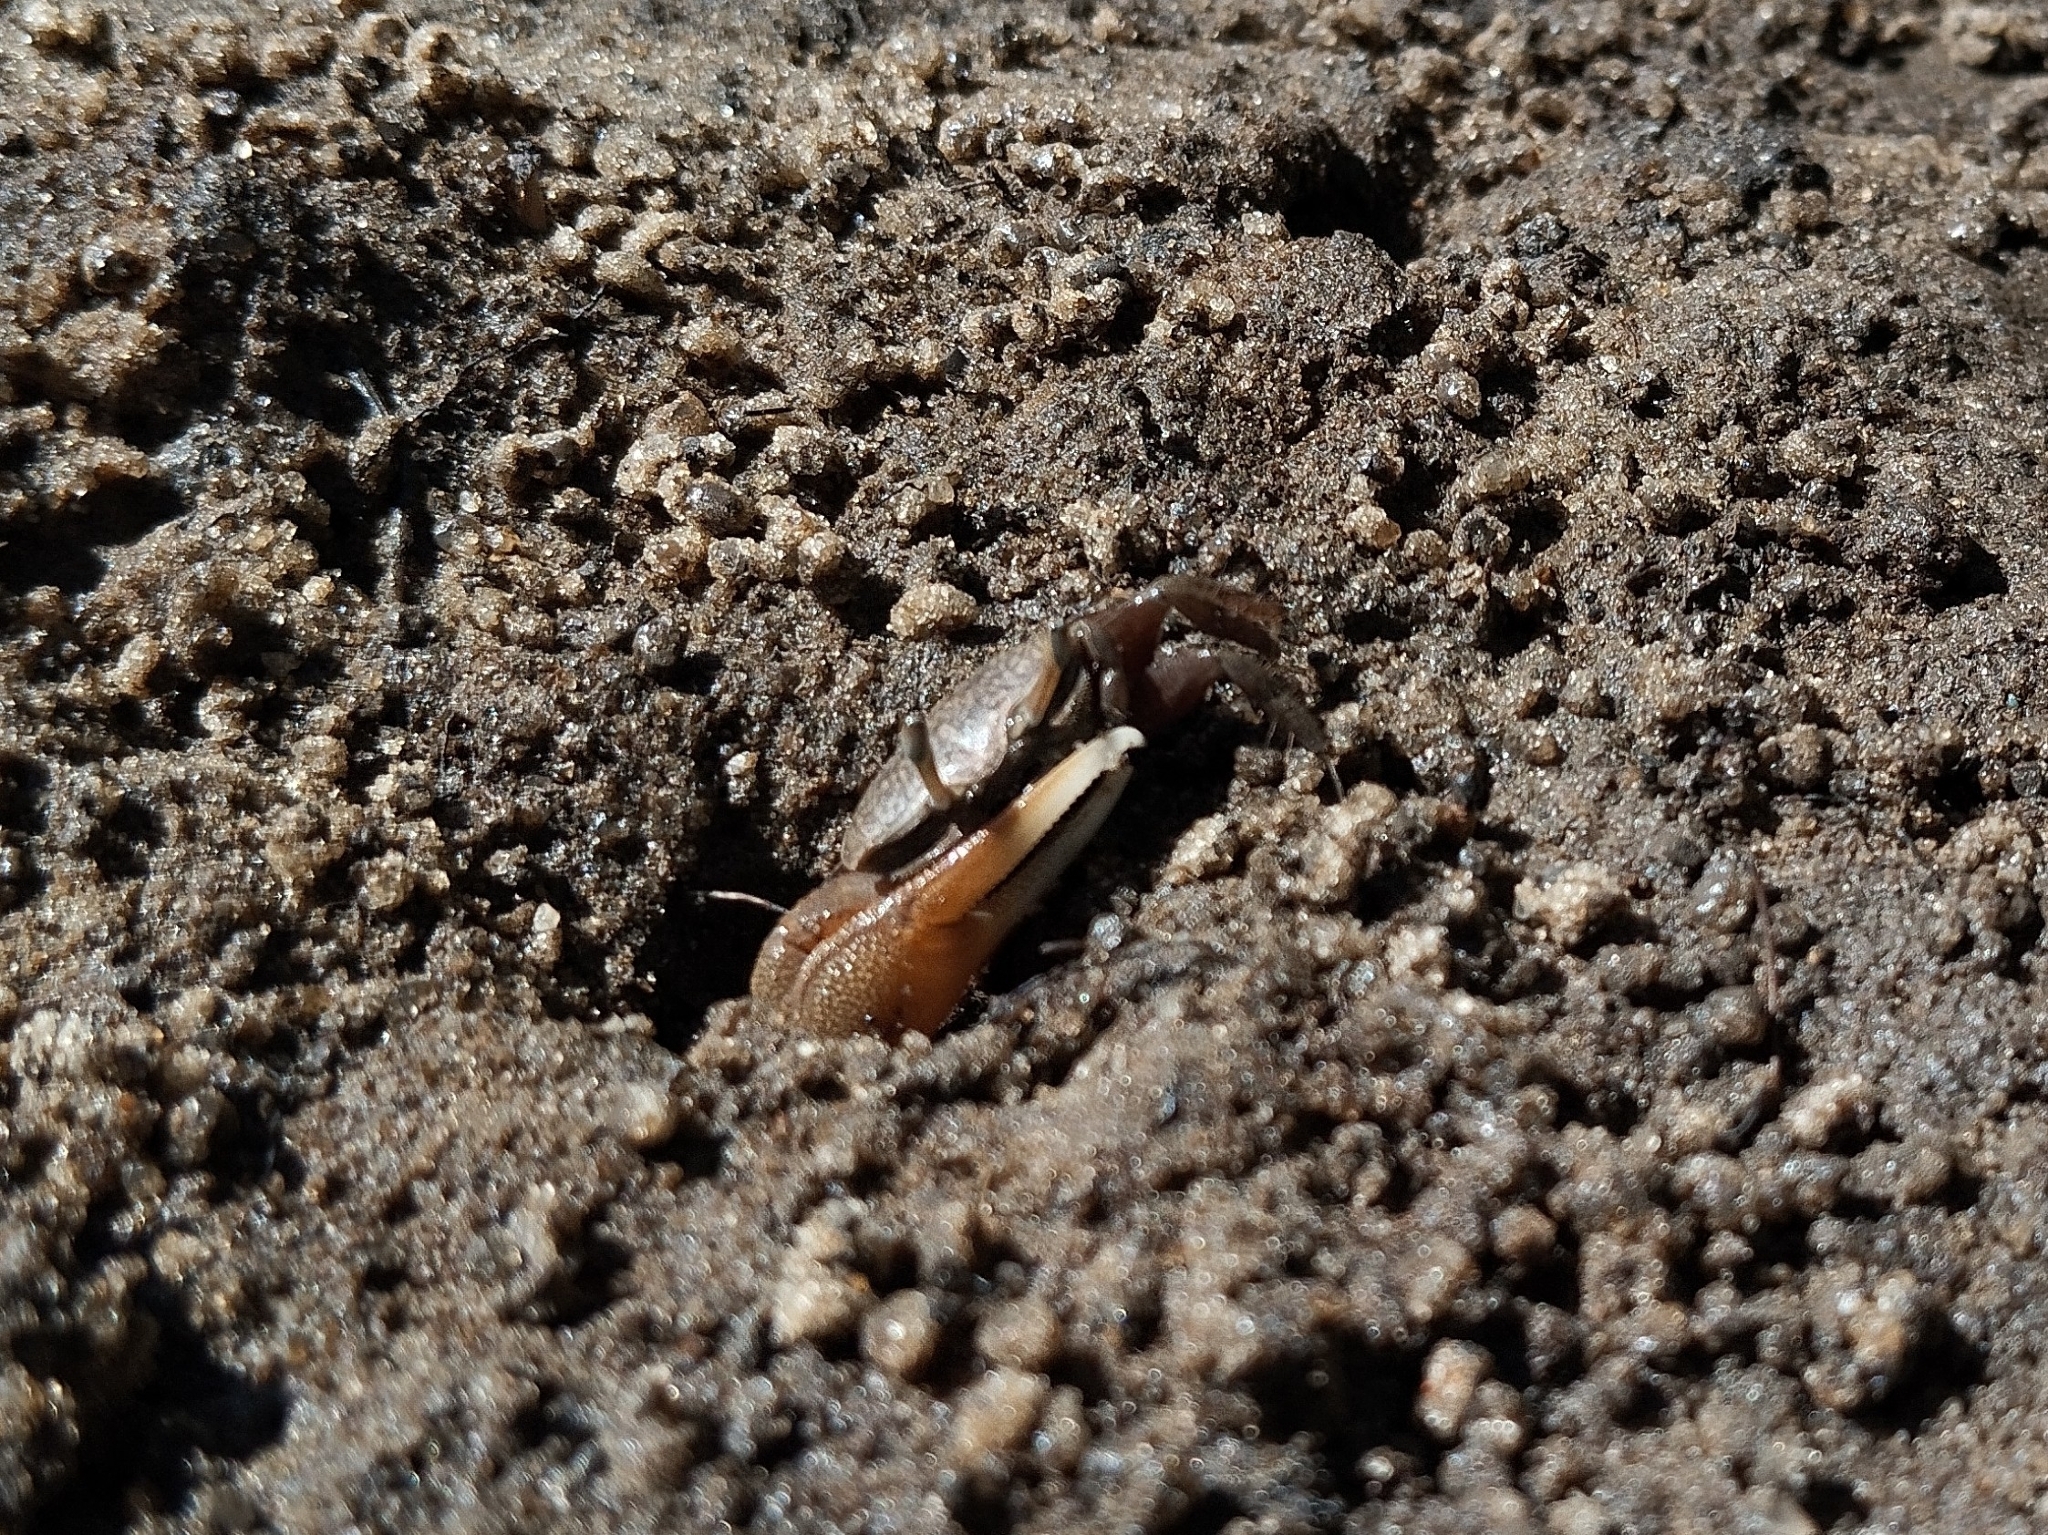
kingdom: Animalia
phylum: Arthropoda
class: Malacostraca
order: Decapoda
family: Ocypodidae
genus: Minuca
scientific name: Minuca rapax
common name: Rapacious fiddler crab
